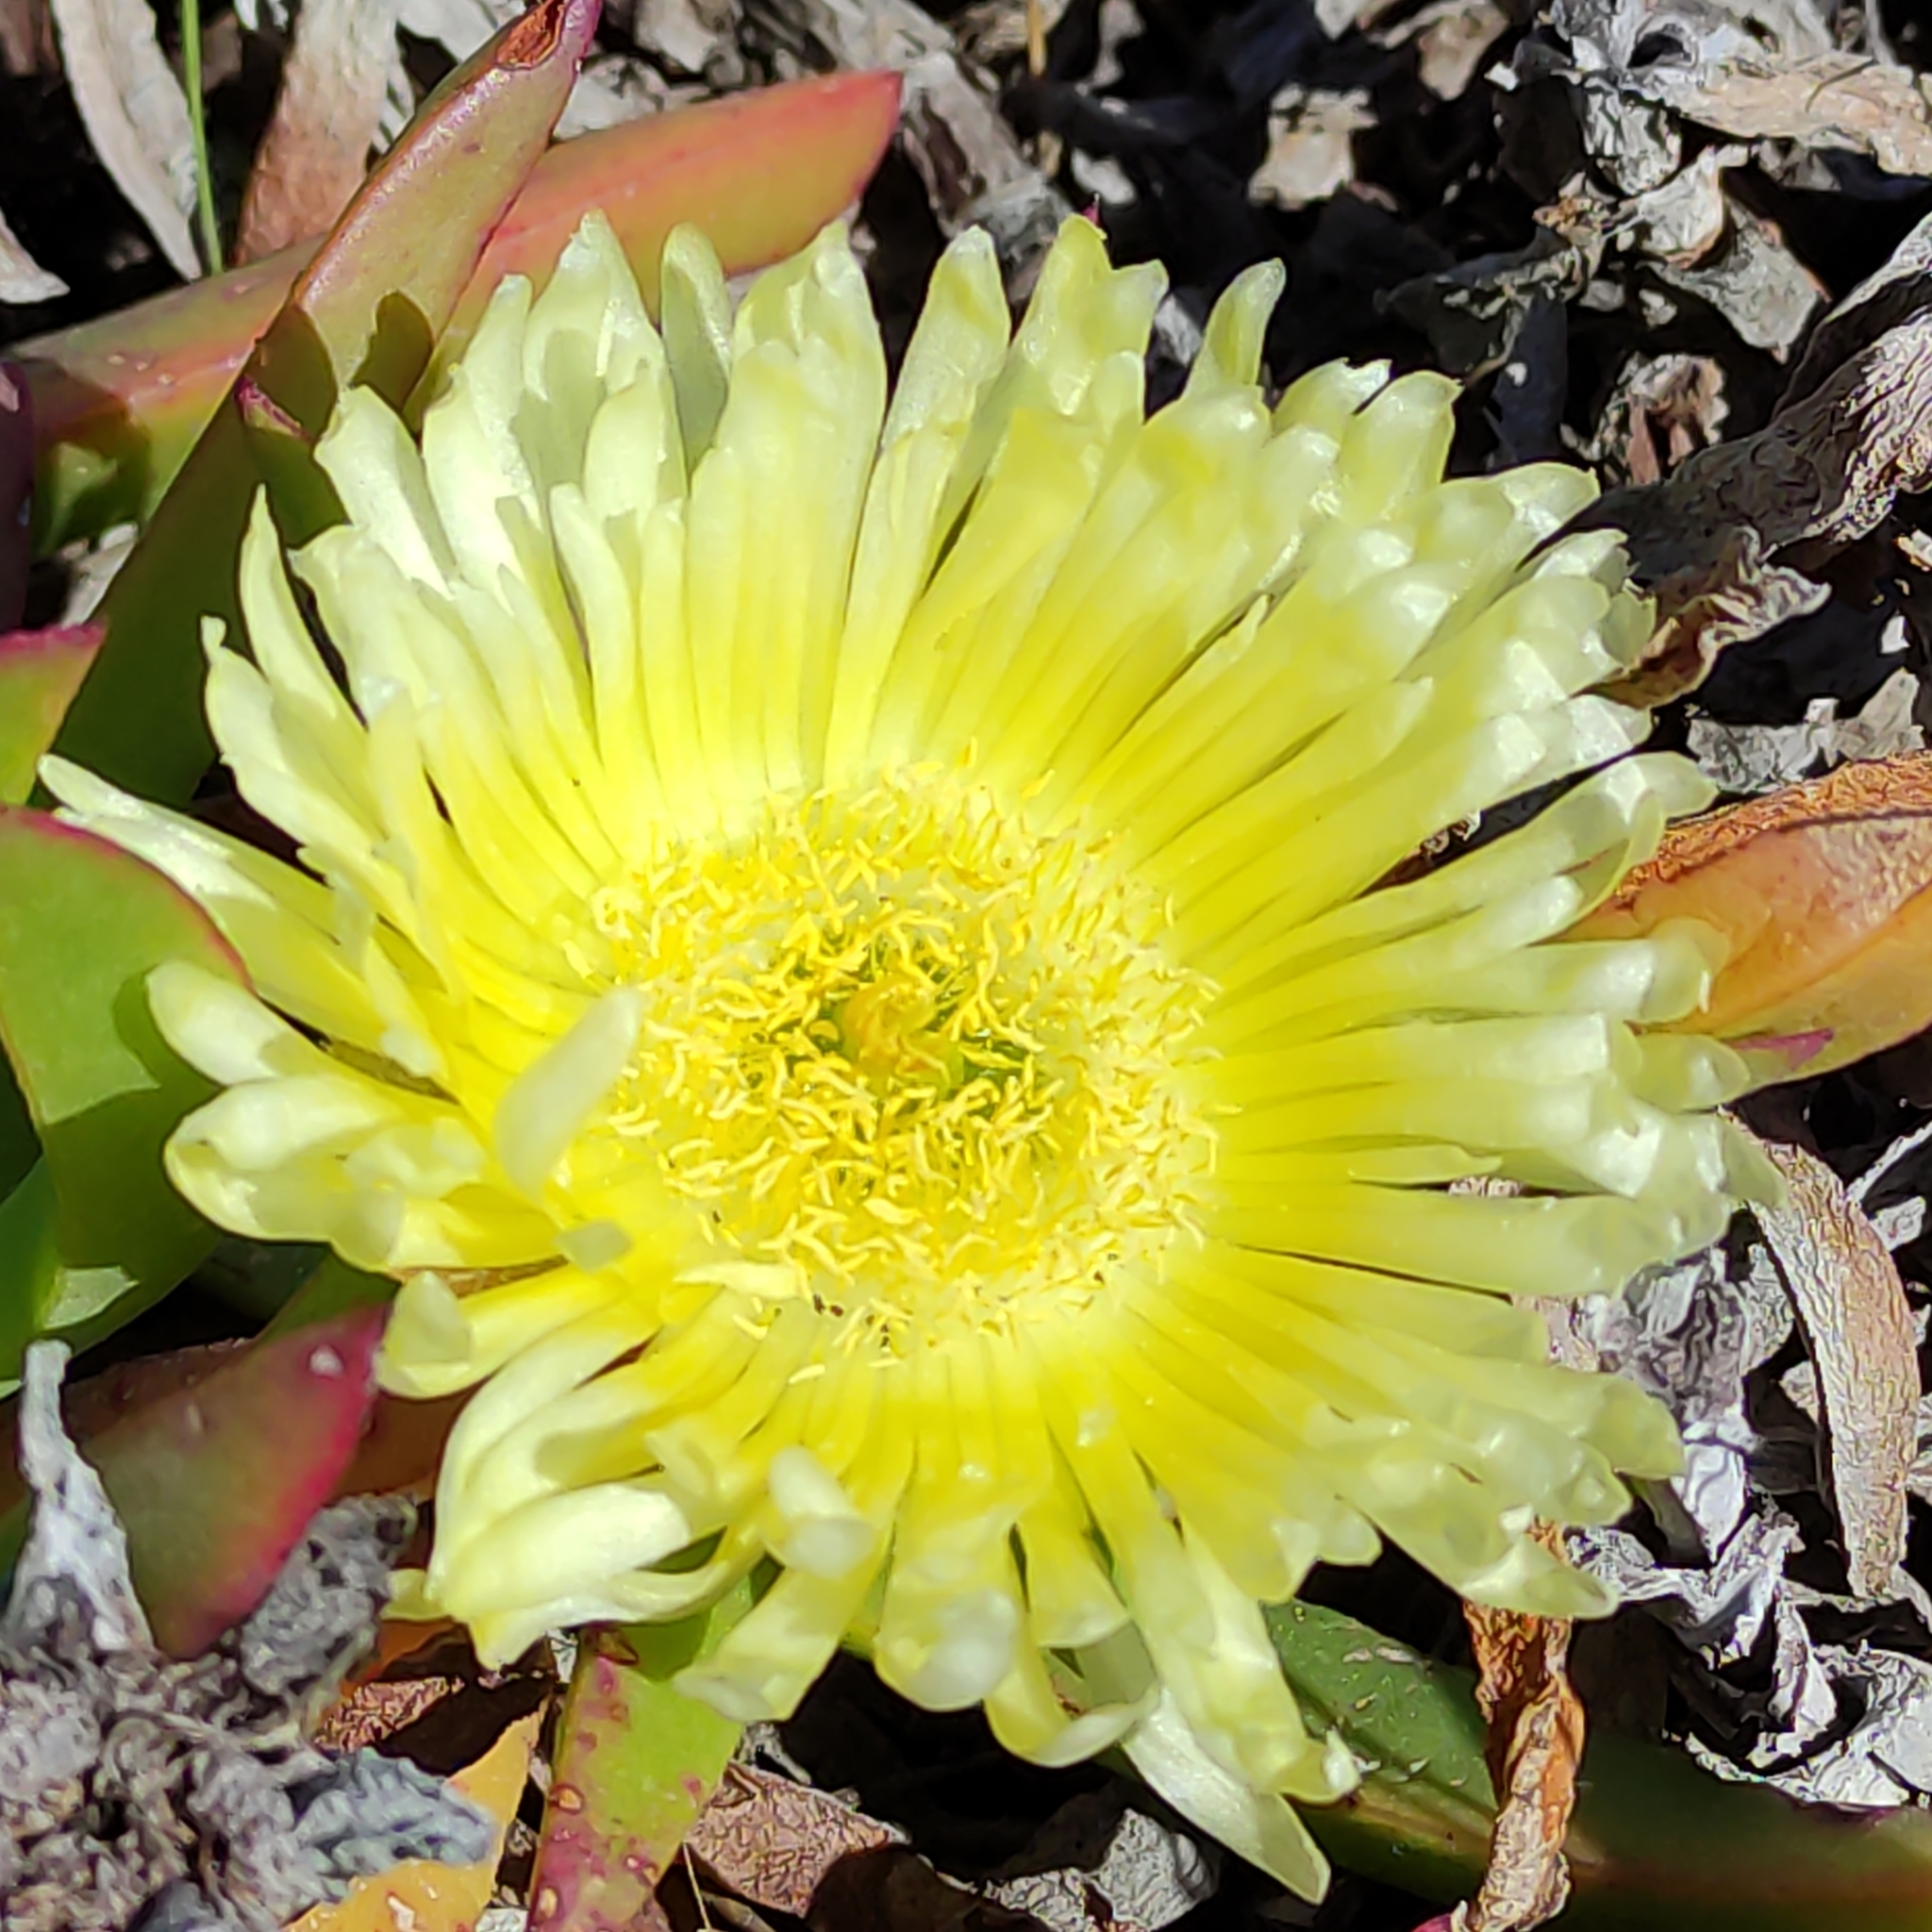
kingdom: Plantae
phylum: Tracheophyta
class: Magnoliopsida
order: Caryophyllales
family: Aizoaceae
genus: Carpobrotus
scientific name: Carpobrotus edulis
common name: Hottentot-fig
